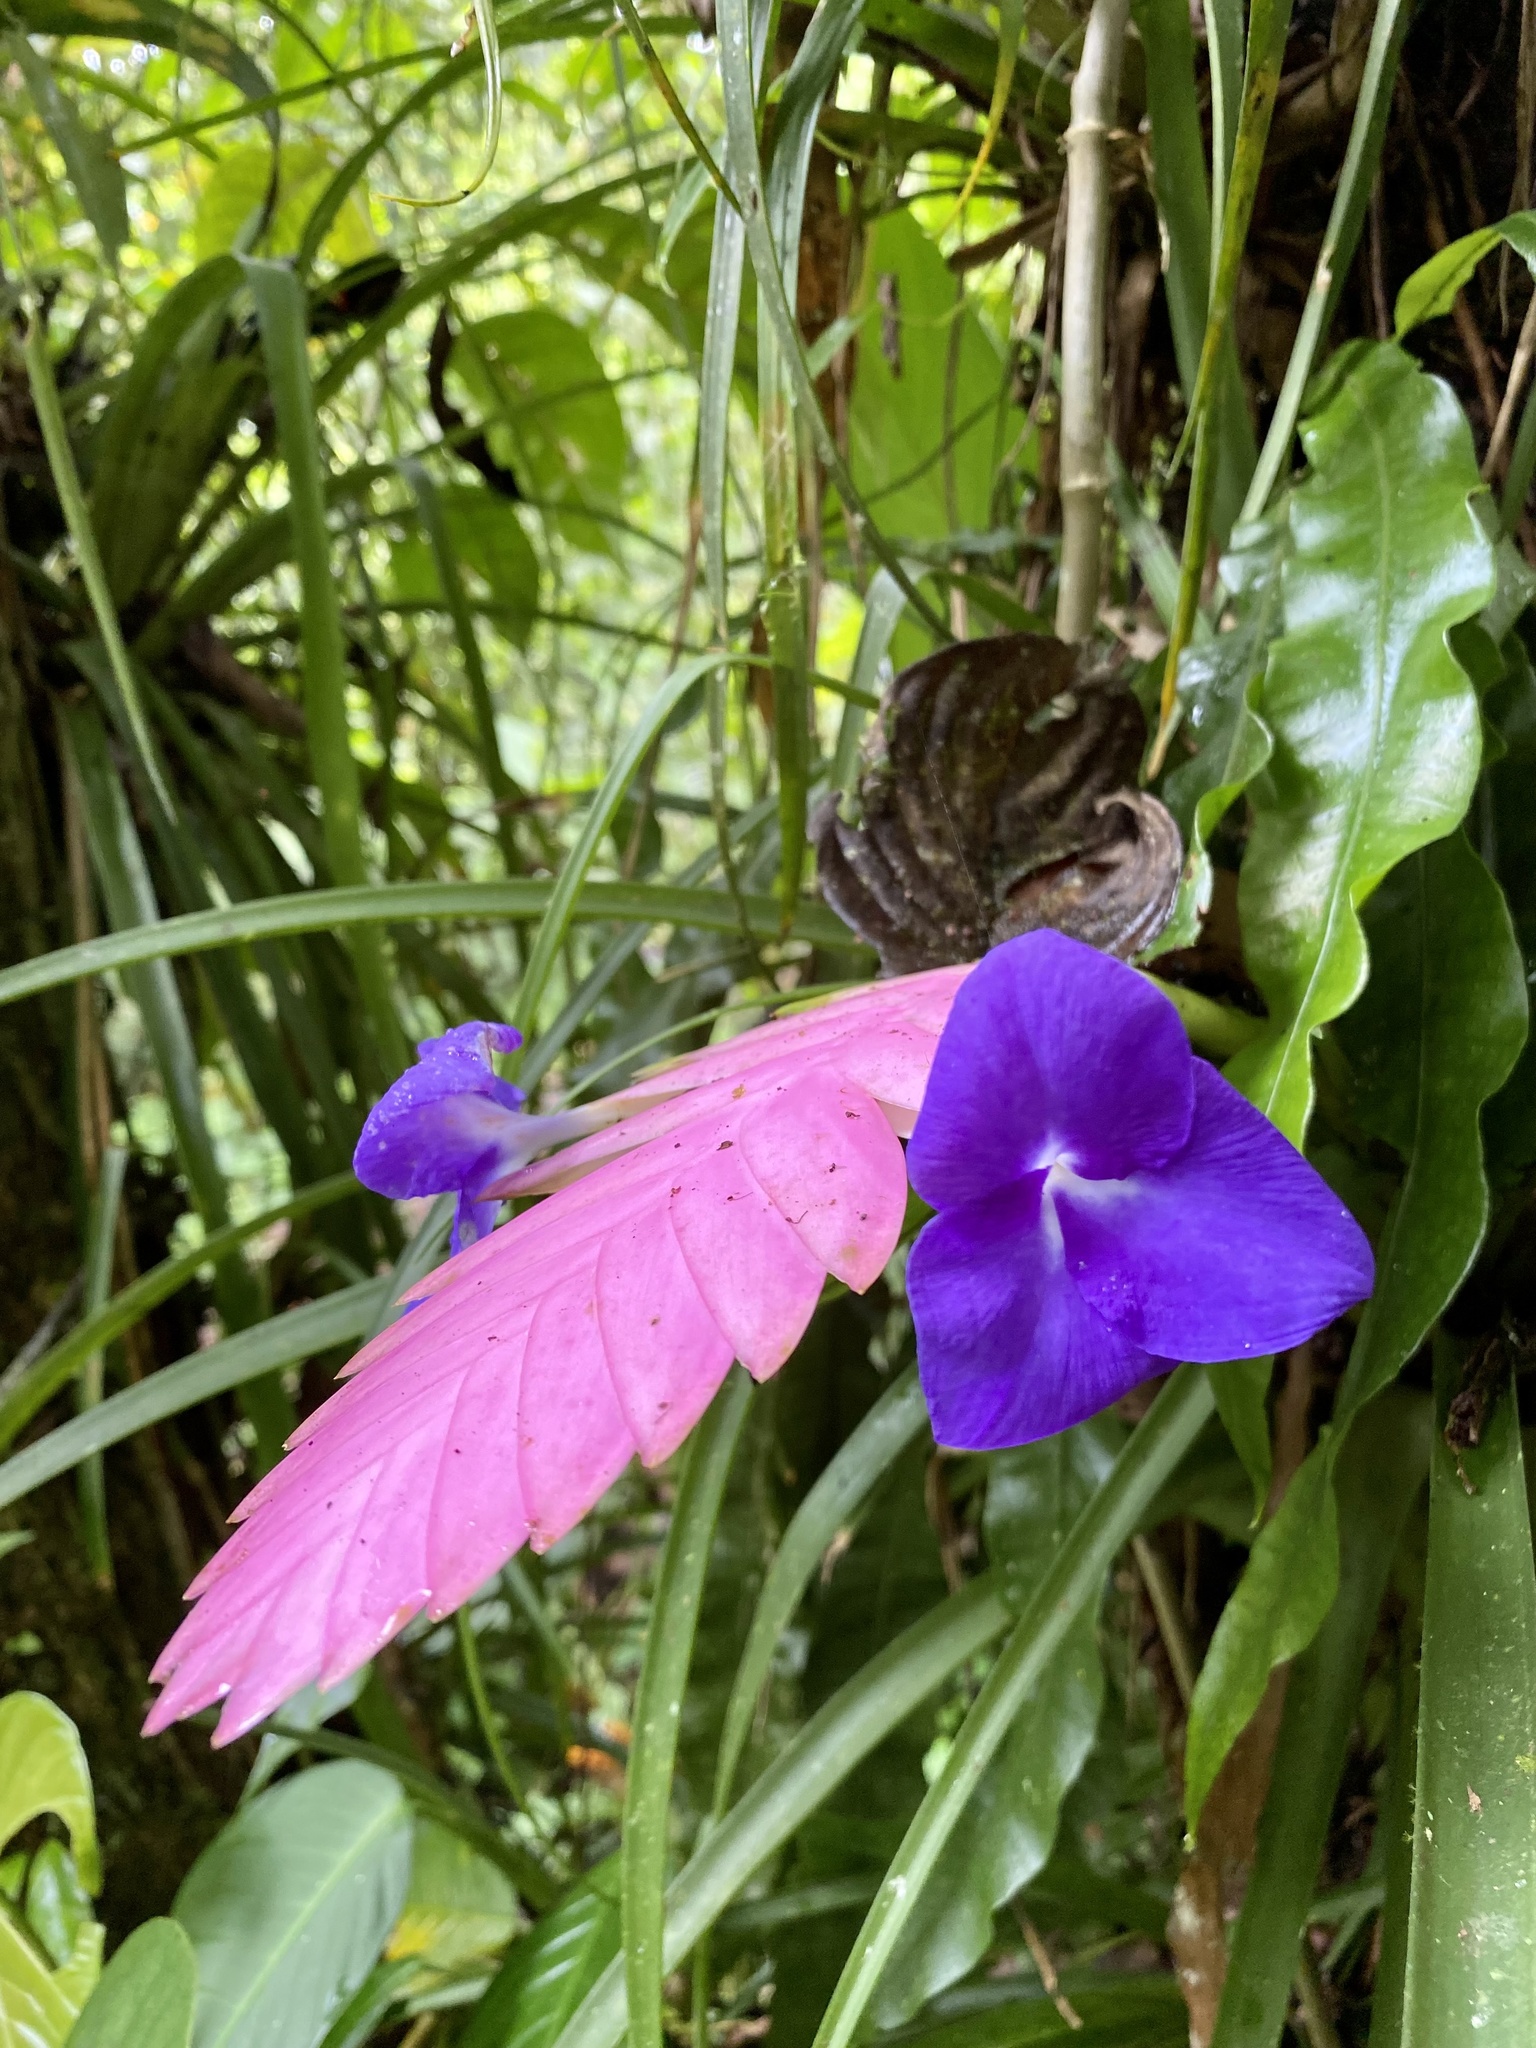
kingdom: Plantae
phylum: Tracheophyta
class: Liliopsida
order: Poales
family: Bromeliaceae
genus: Wallisia
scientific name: Wallisia cyanea
